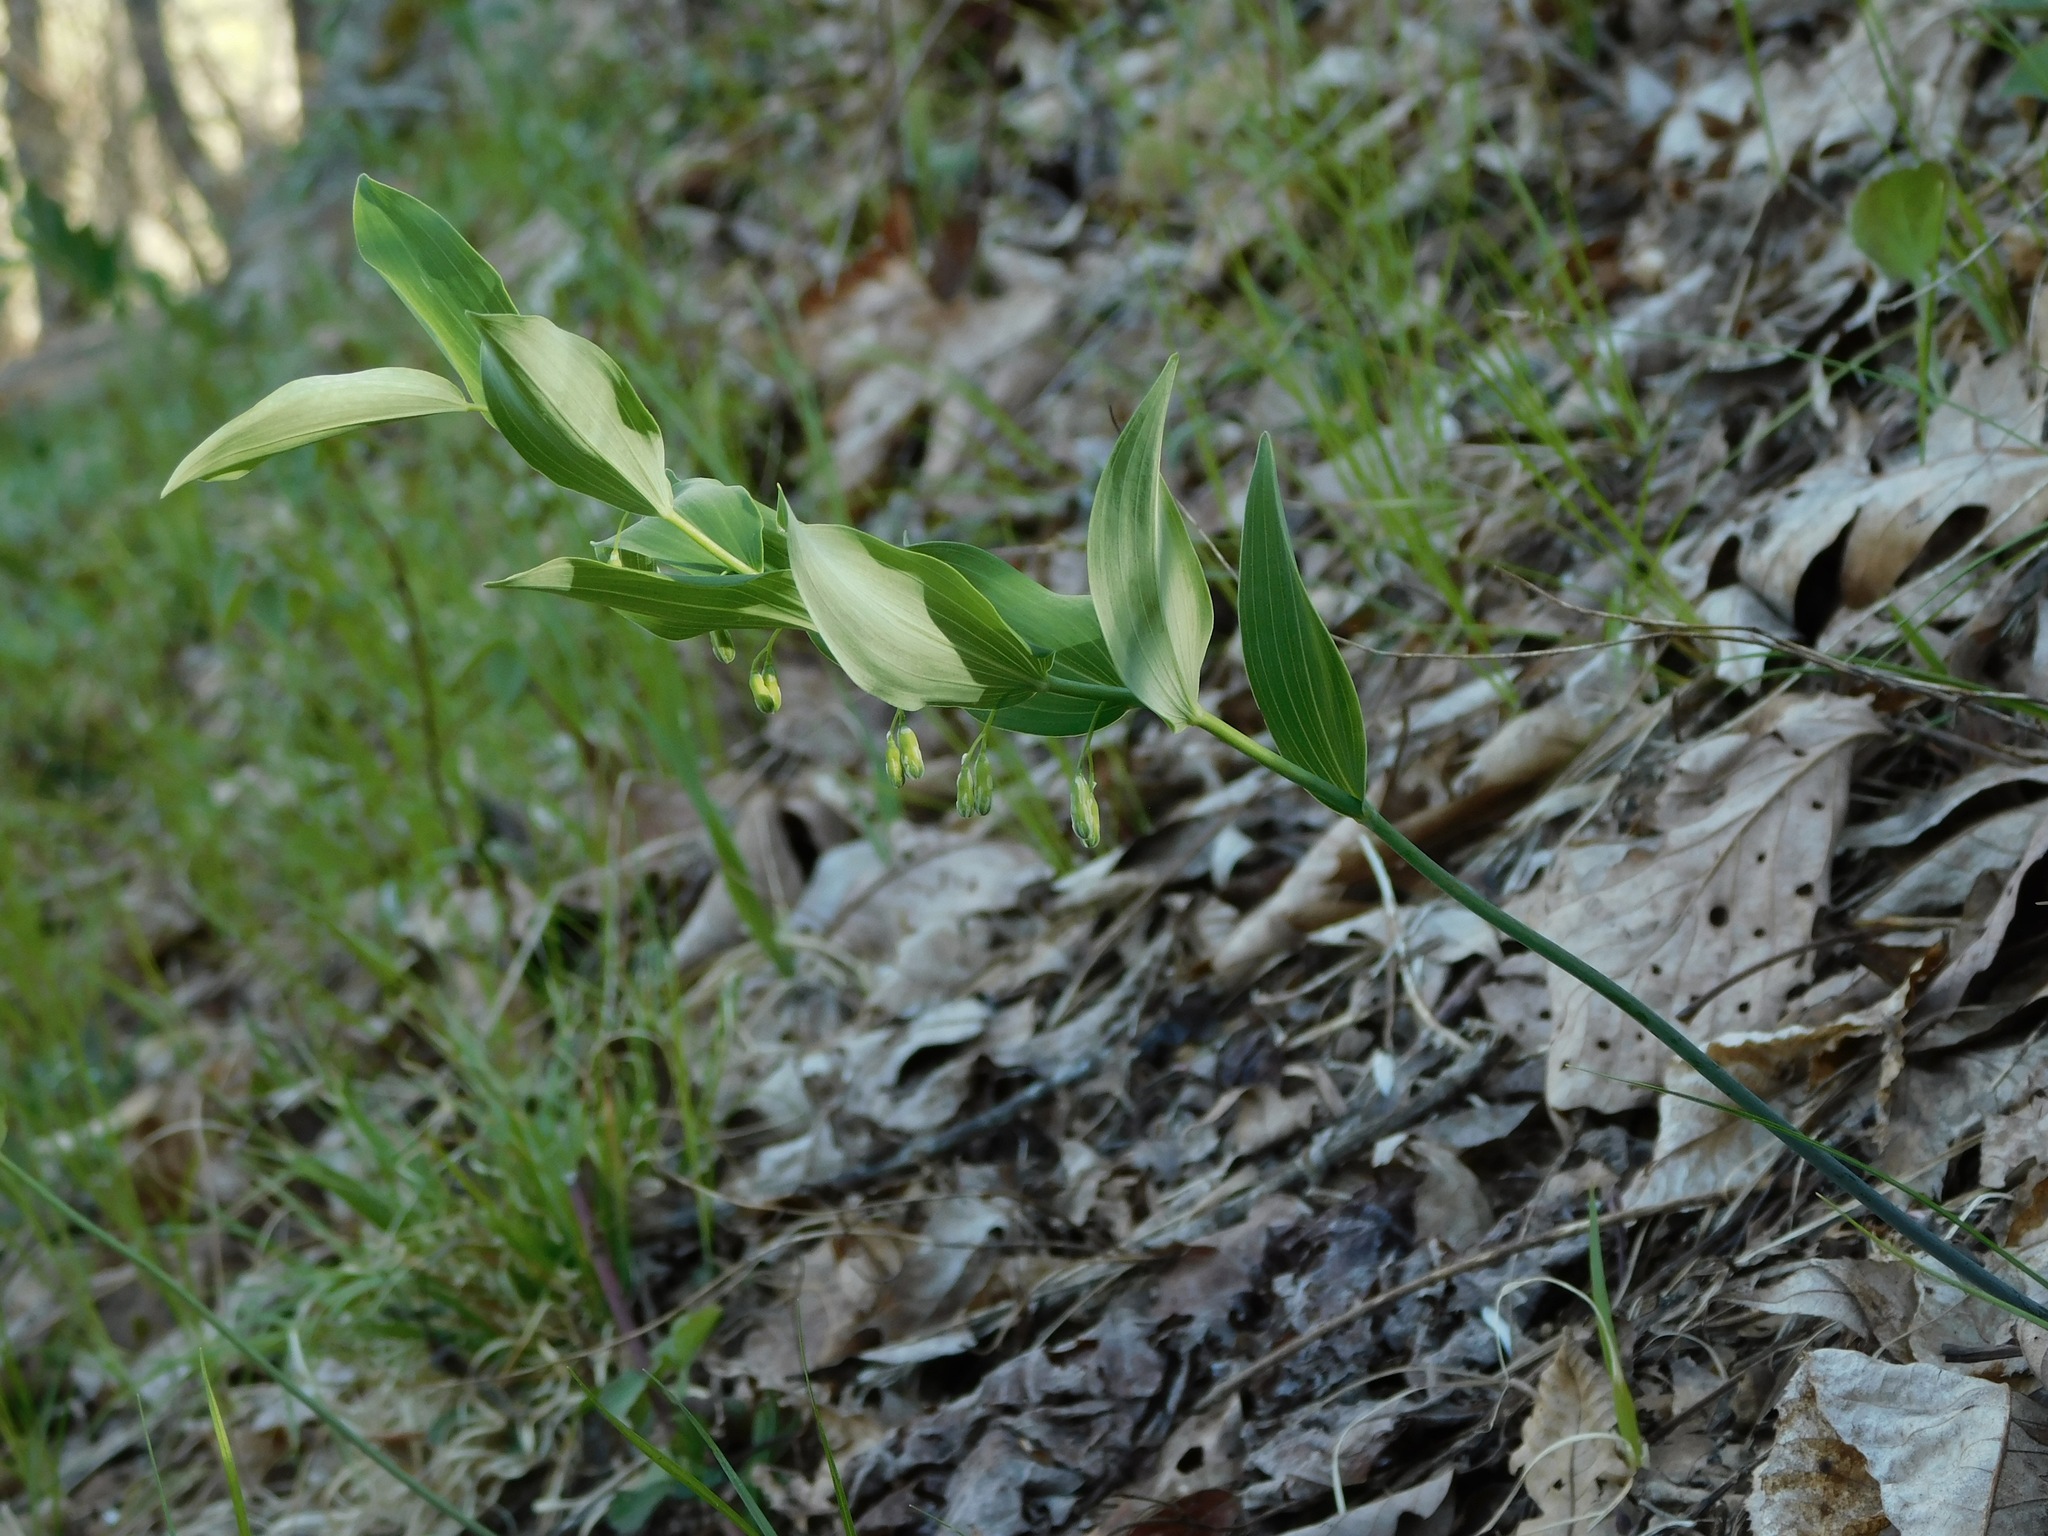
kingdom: Plantae
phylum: Tracheophyta
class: Liliopsida
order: Asparagales
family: Asparagaceae
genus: Polygonatum
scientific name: Polygonatum biflorum
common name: American solomon's-seal
